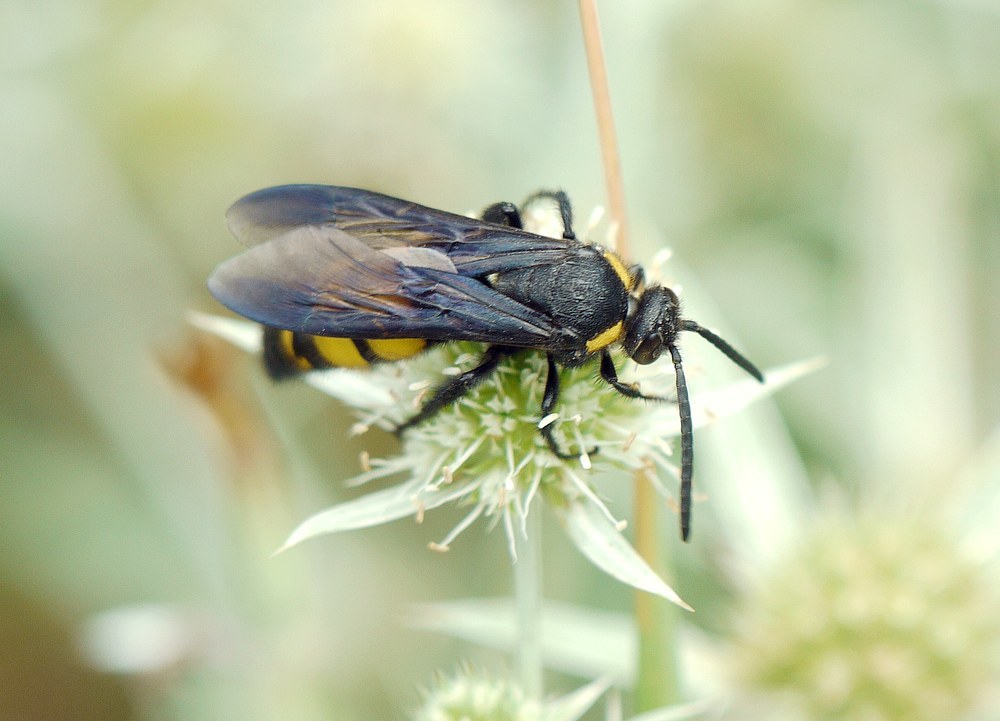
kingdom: Animalia
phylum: Arthropoda
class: Insecta
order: Hymenoptera
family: Vespidae
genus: Vespa
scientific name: Vespa galbula
